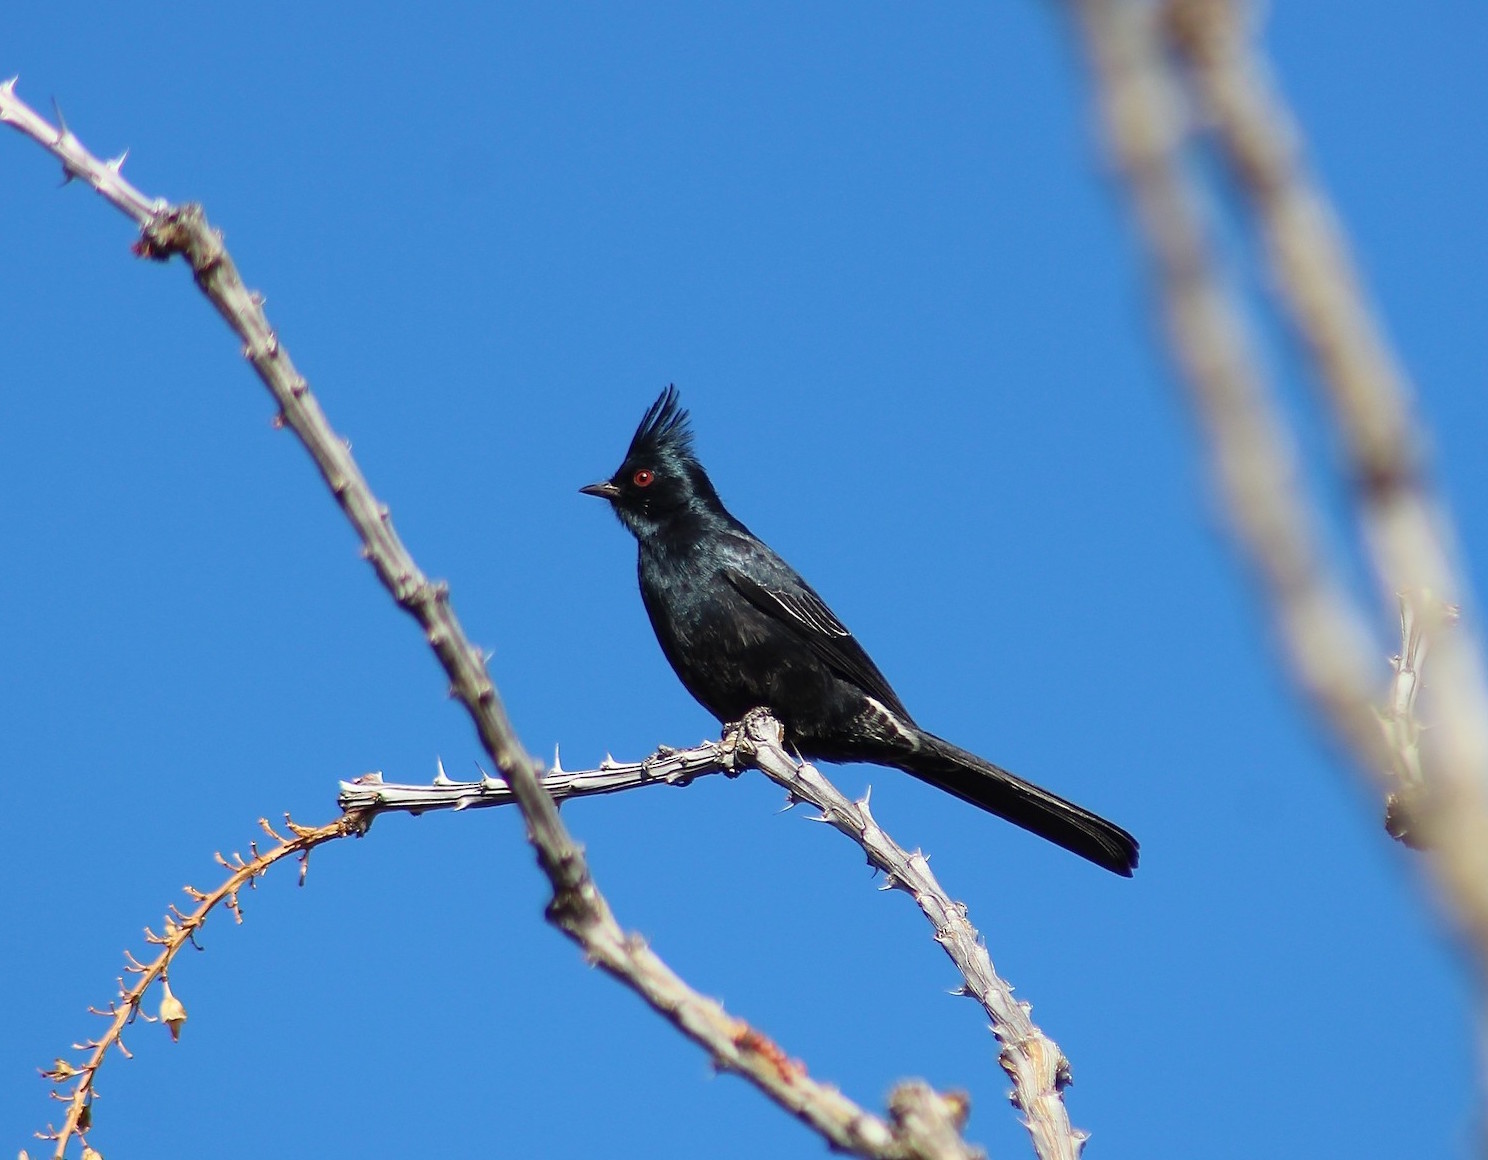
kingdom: Animalia
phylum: Chordata
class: Aves
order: Passeriformes
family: Ptilogonatidae
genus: Phainopepla
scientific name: Phainopepla nitens
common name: Phainopepla
